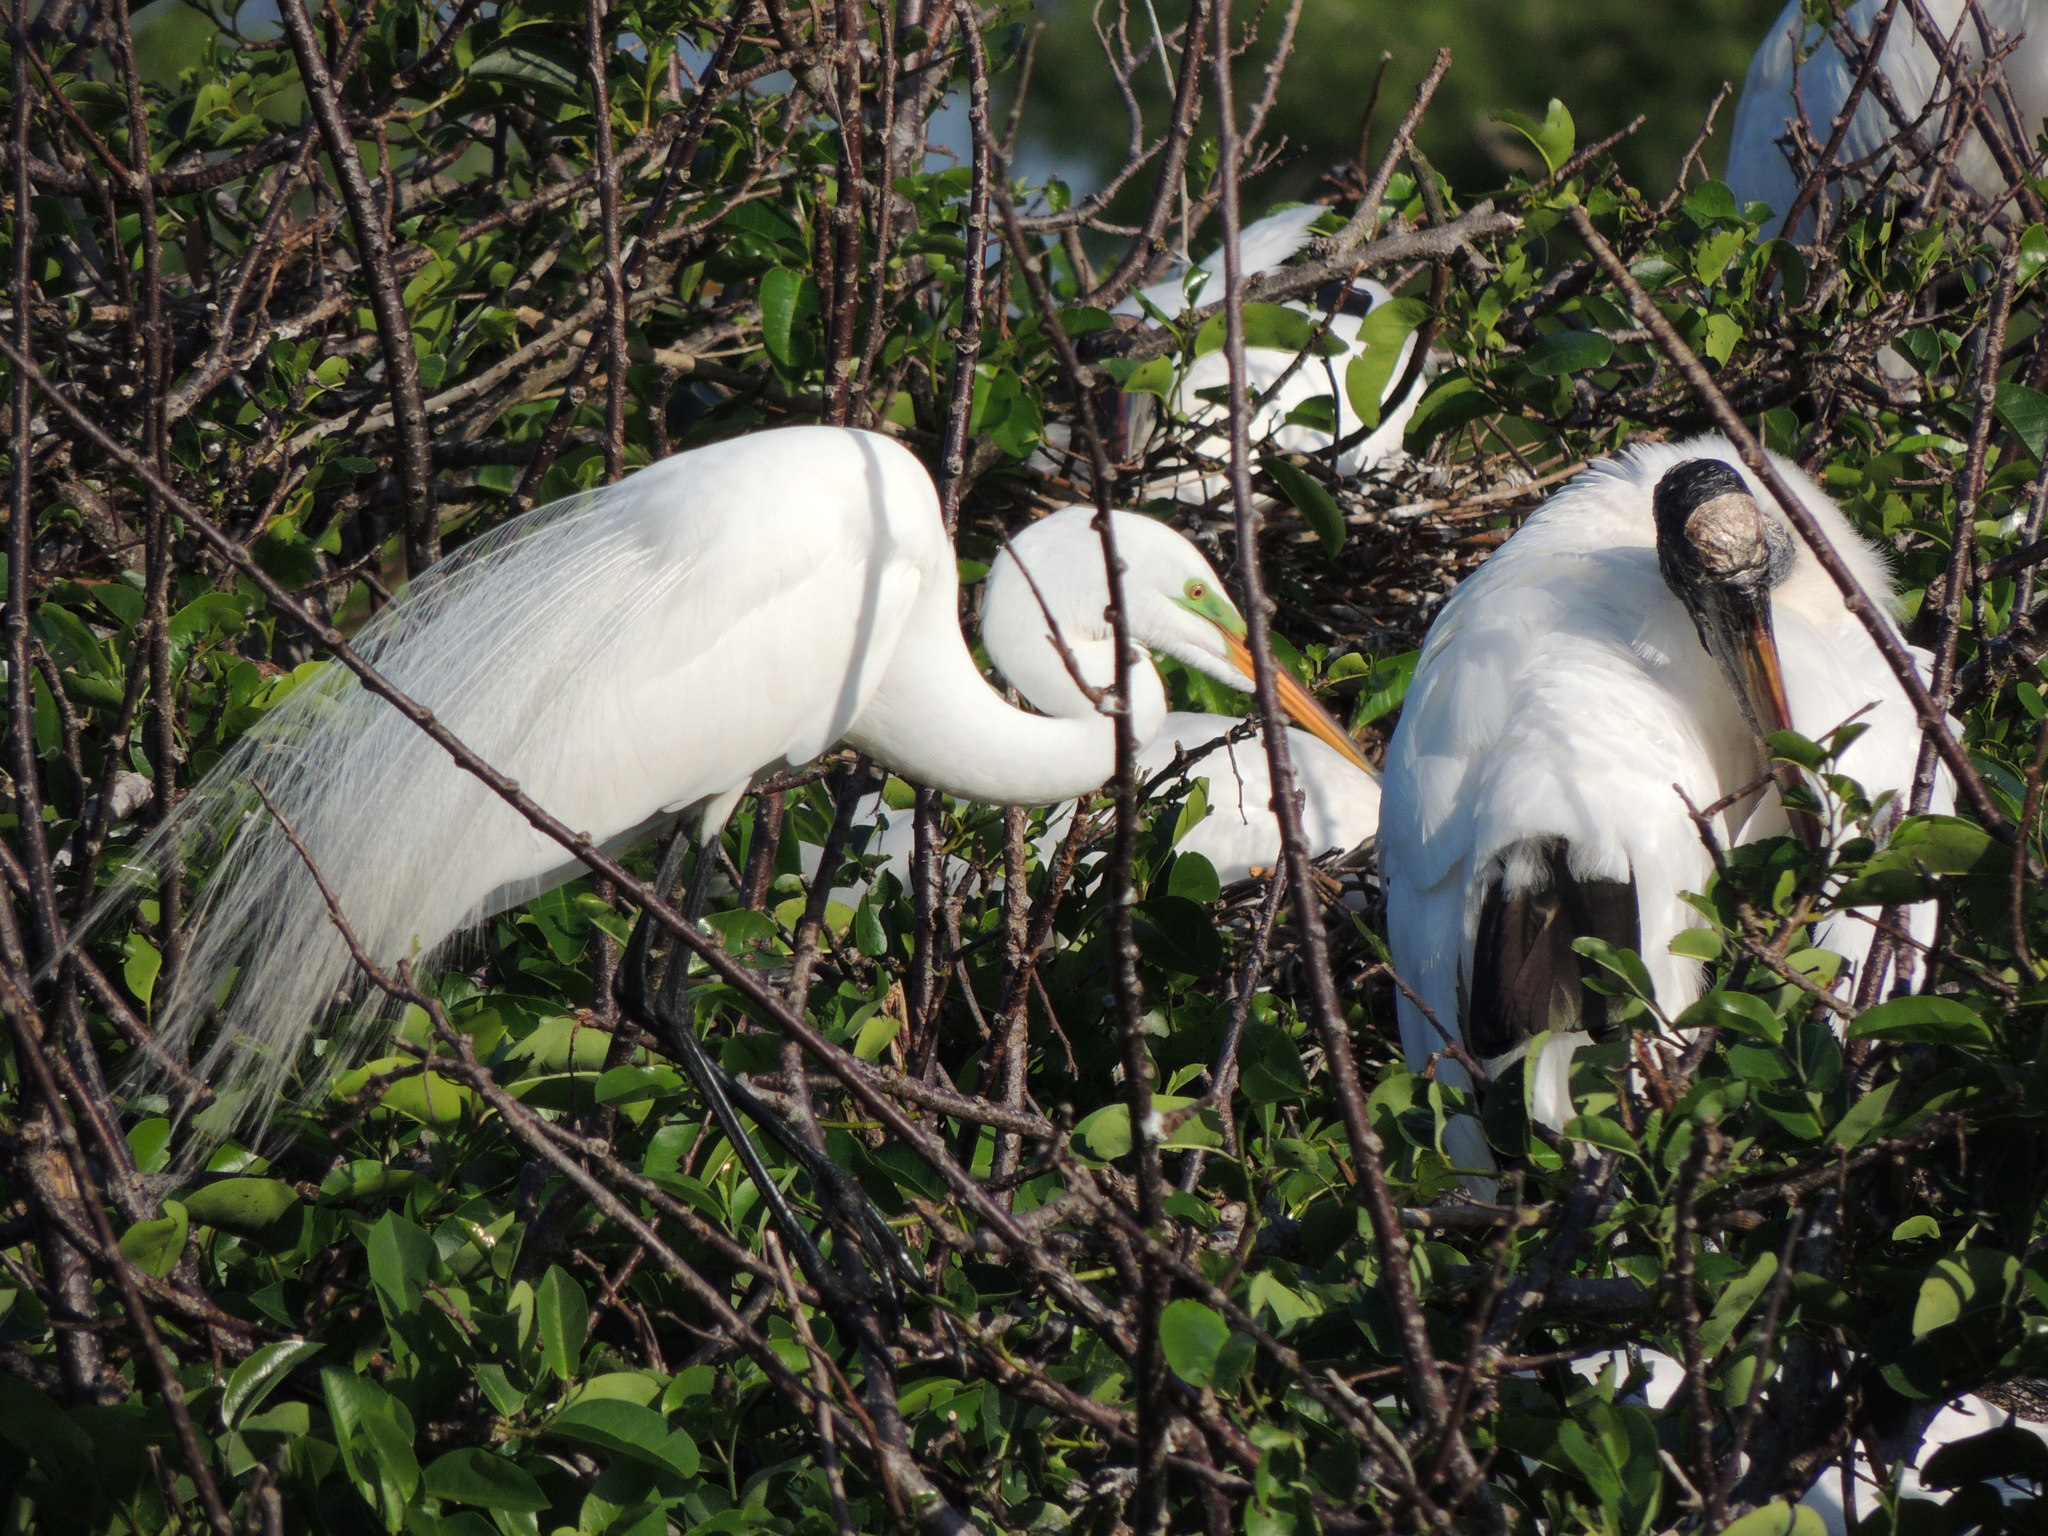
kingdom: Animalia
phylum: Chordata
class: Aves
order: Pelecaniformes
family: Ardeidae
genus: Ardea
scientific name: Ardea alba
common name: Great egret
